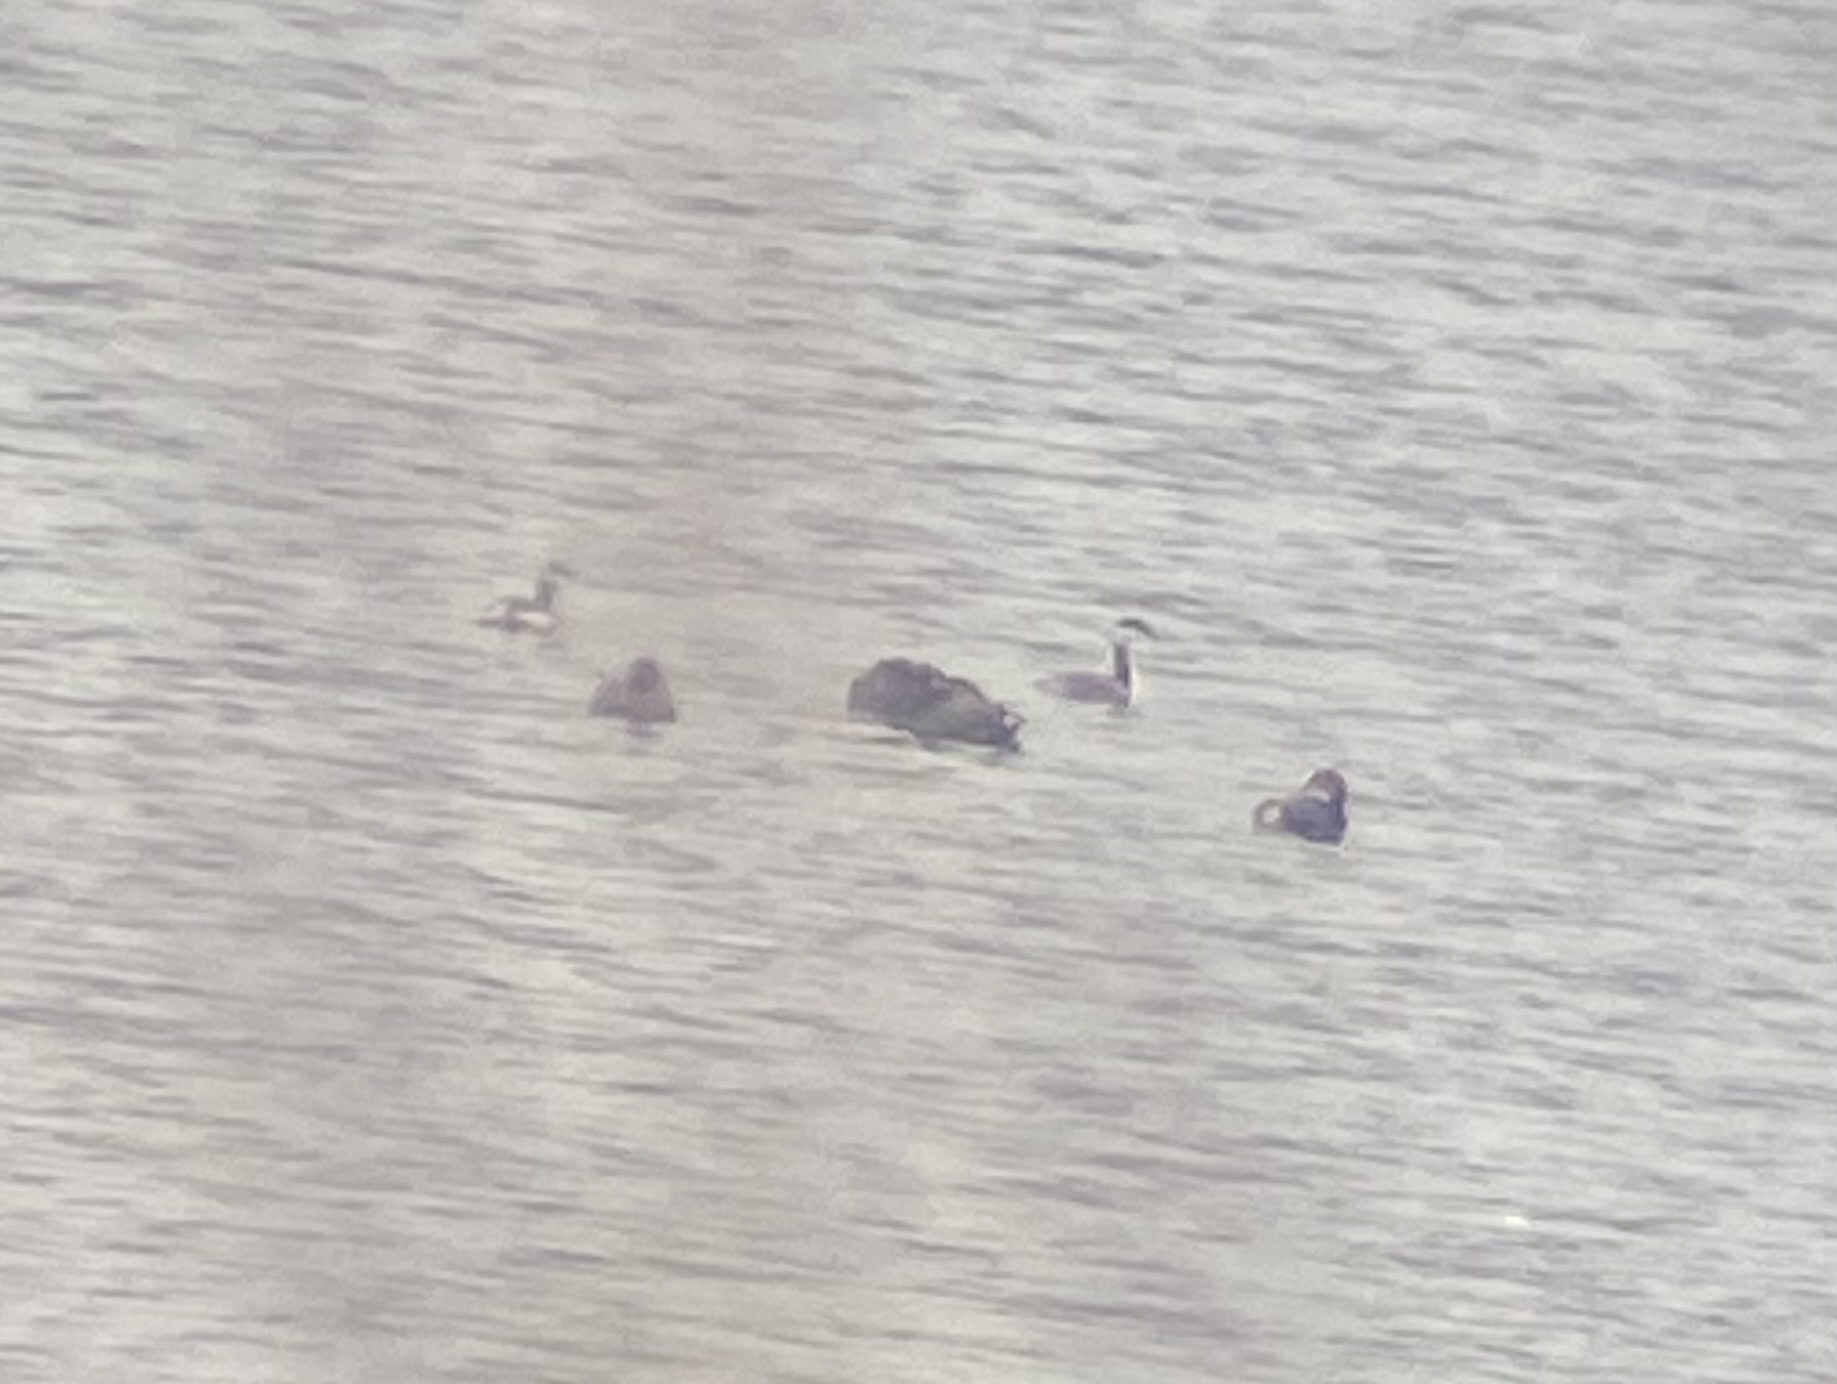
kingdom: Animalia
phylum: Chordata
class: Aves
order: Gruiformes
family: Rallidae
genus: Fulica
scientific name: Fulica americana
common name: American coot
